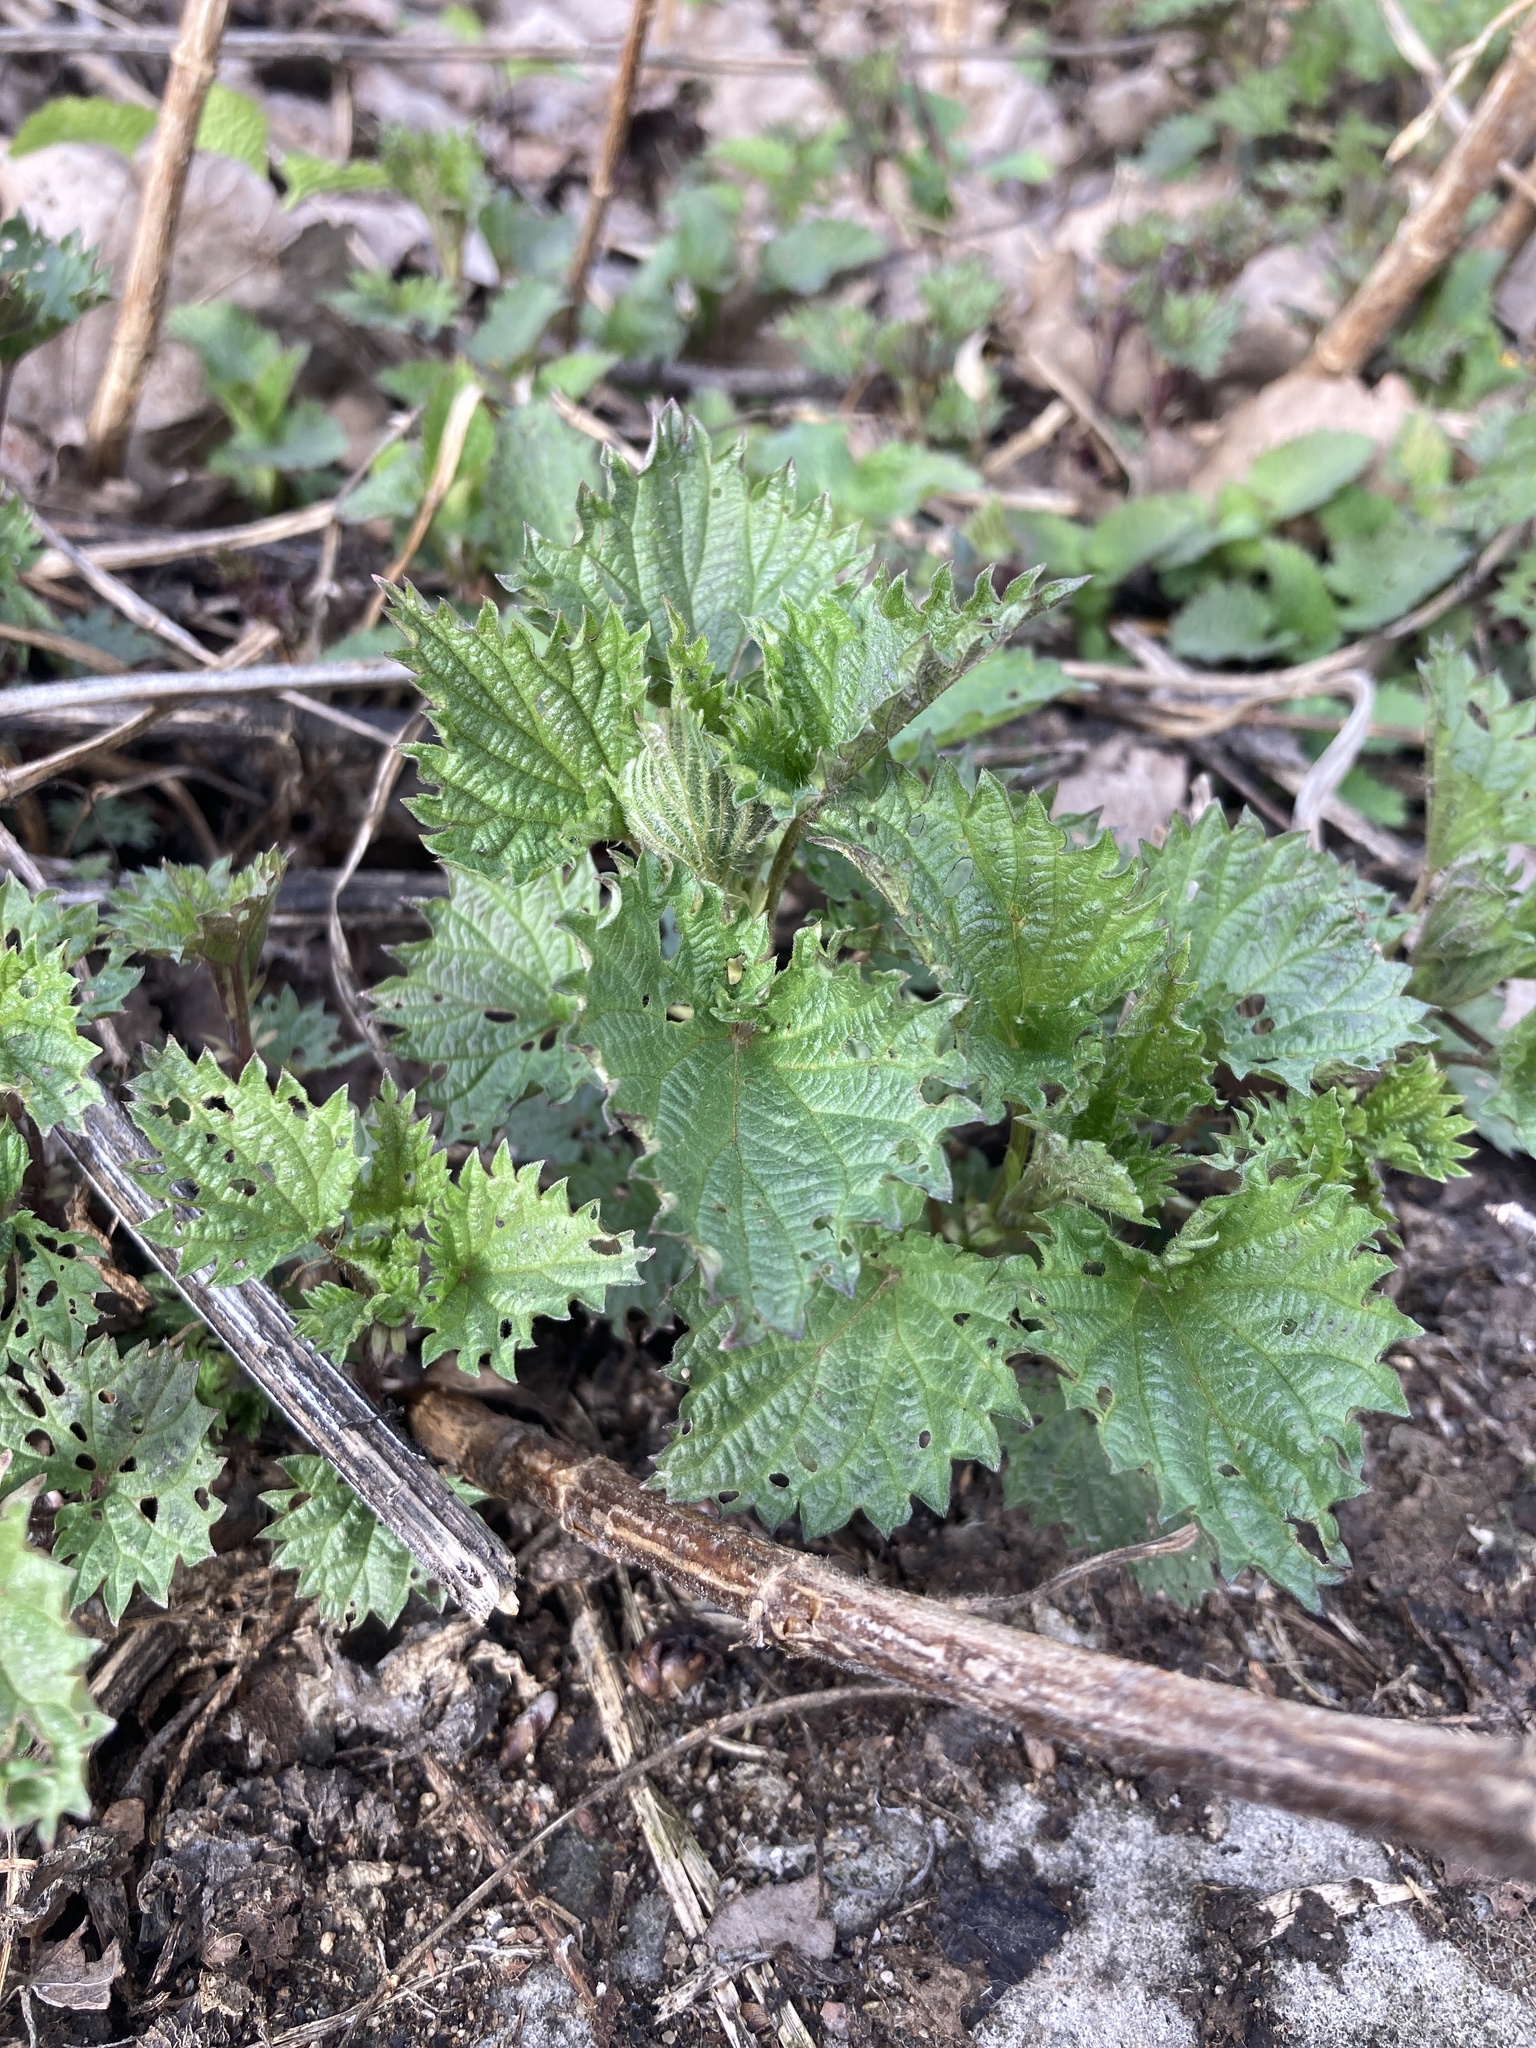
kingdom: Plantae
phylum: Tracheophyta
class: Magnoliopsida
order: Rosales
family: Urticaceae
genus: Urtica
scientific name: Urtica dioica
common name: Common nettle
